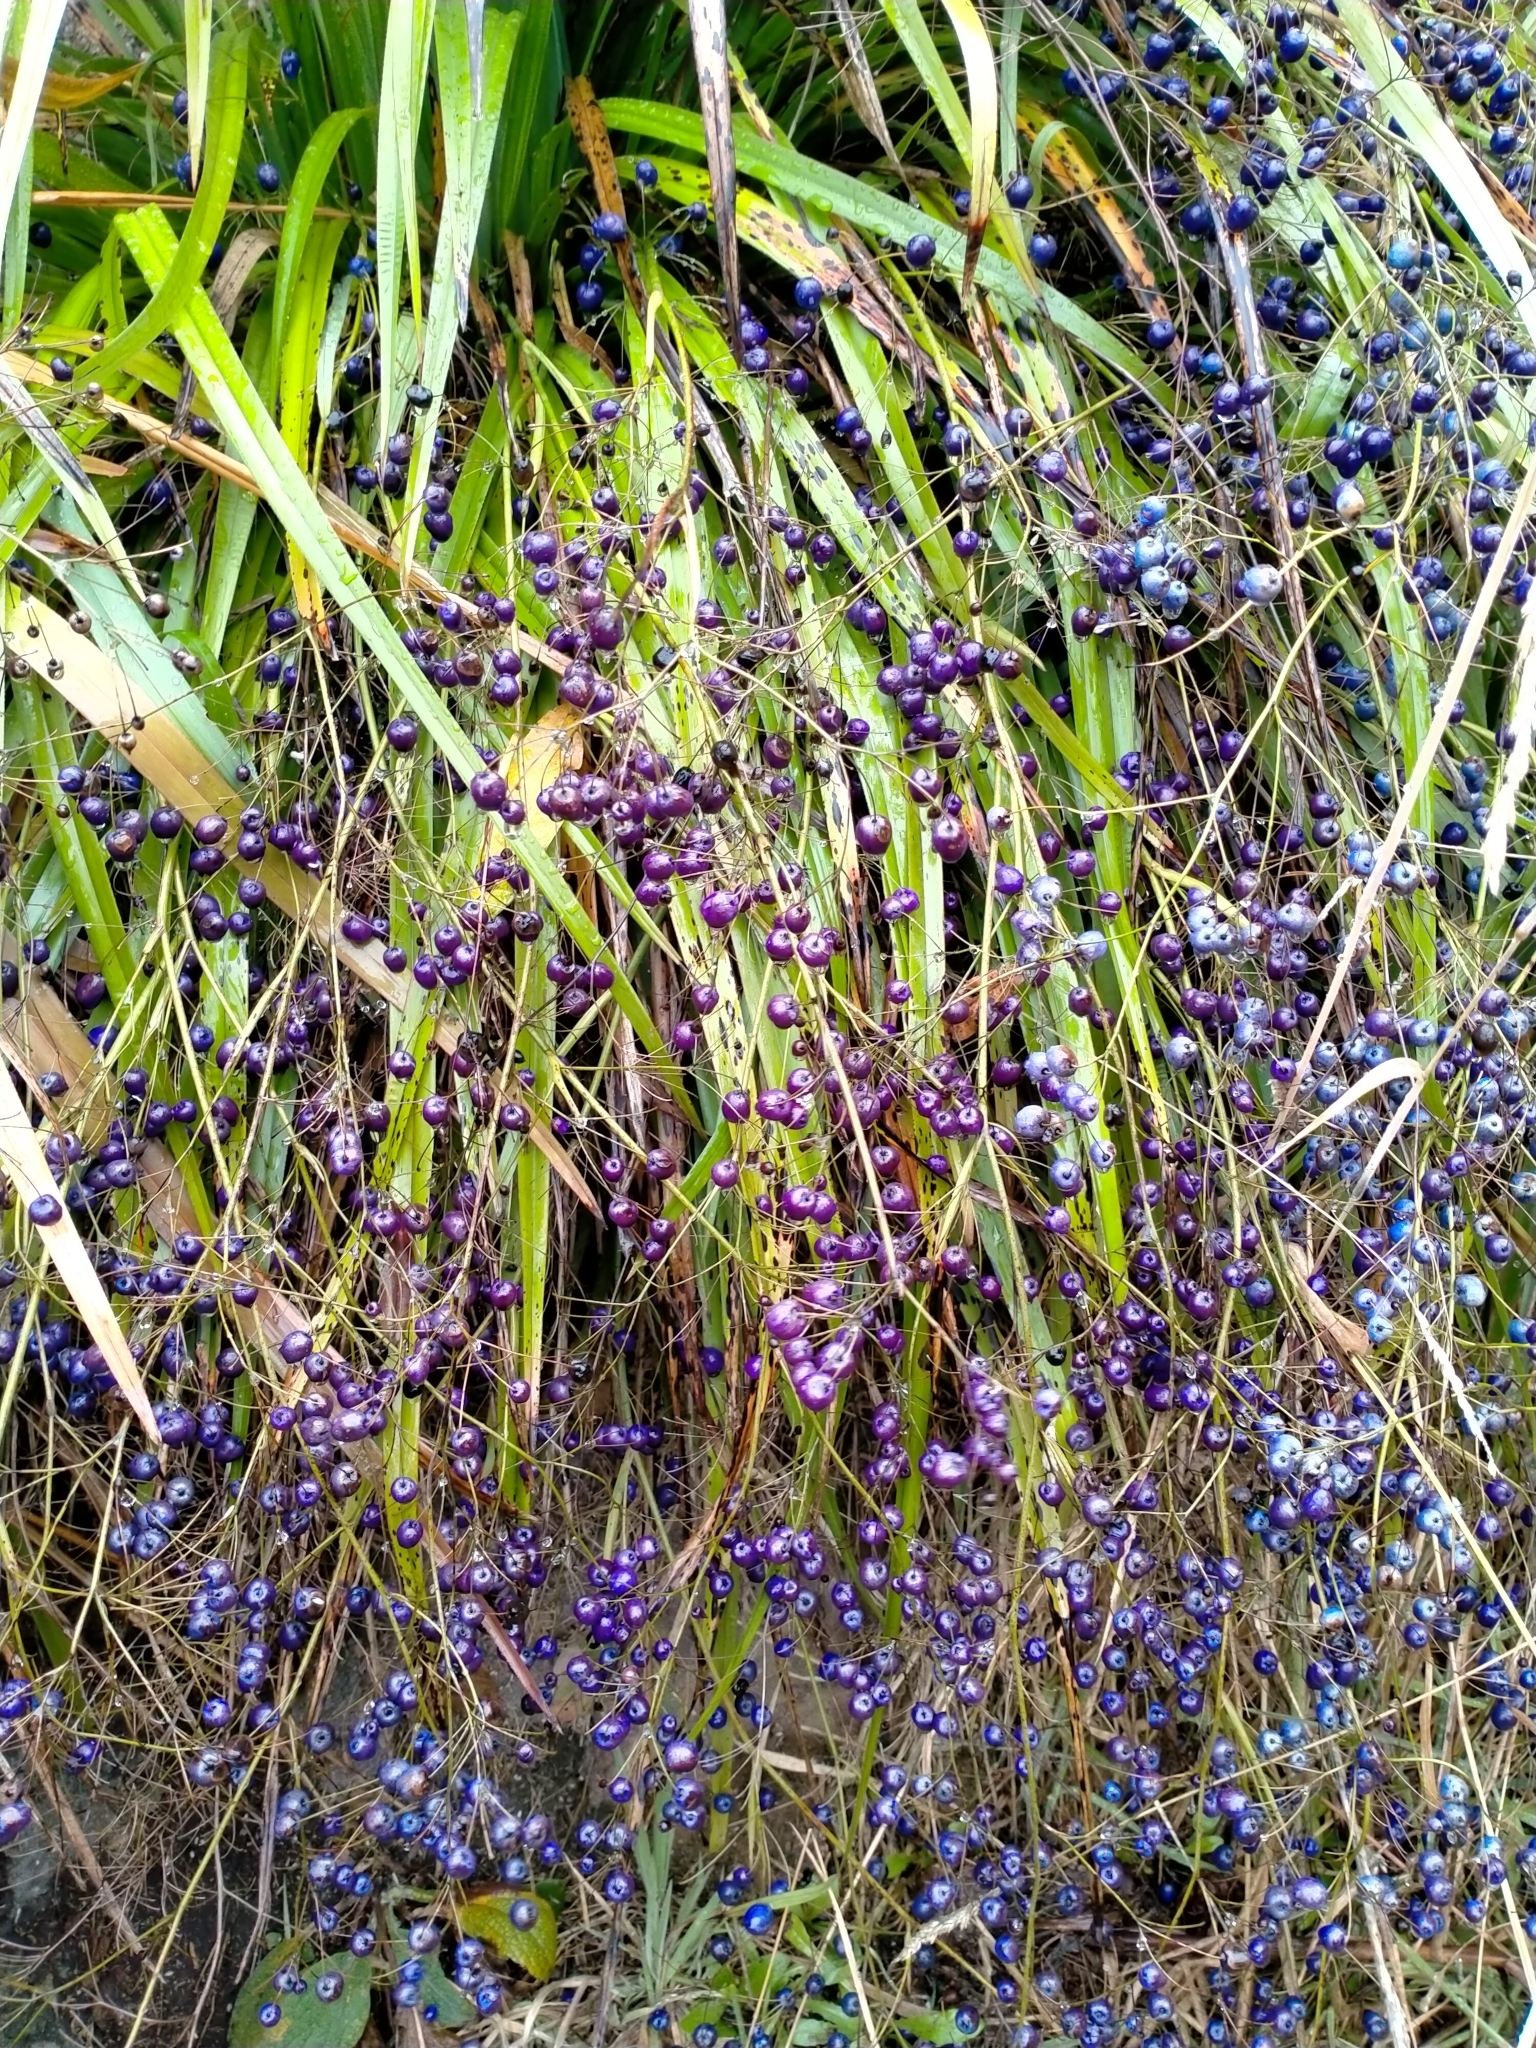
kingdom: Plantae
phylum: Tracheophyta
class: Liliopsida
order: Asparagales
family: Asphodelaceae
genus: Dianella
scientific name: Dianella nigra
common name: New zealand-blueberry
